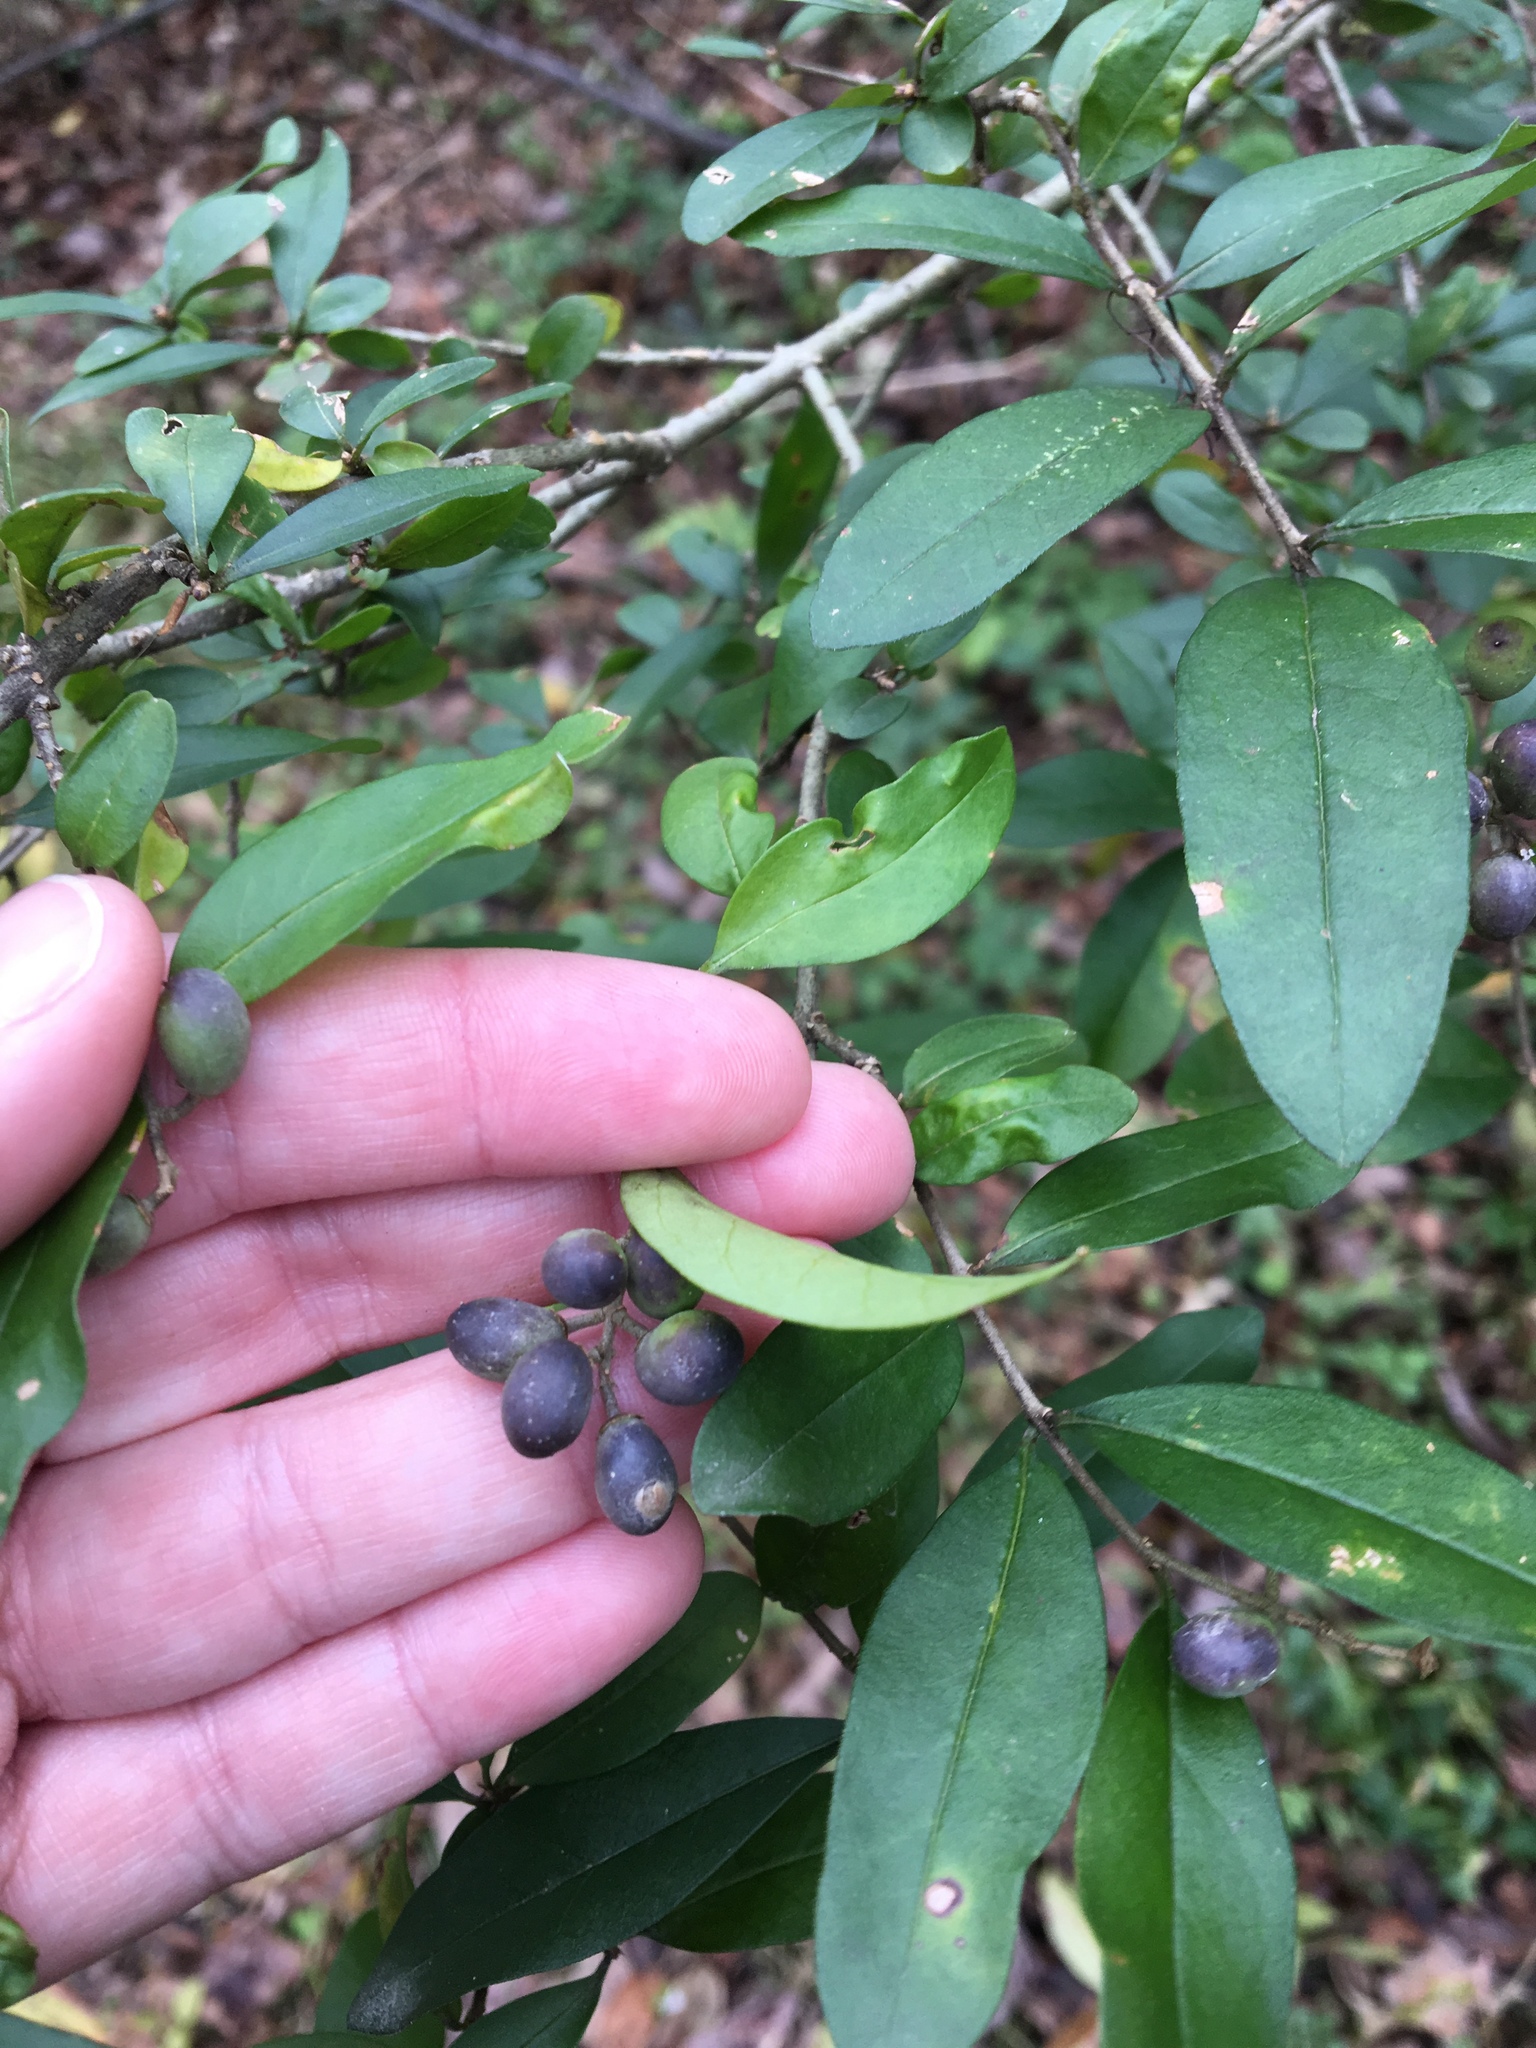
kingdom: Plantae
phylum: Tracheophyta
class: Magnoliopsida
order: Lamiales
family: Oleaceae
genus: Ligustrum
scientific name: Ligustrum obtusifolium
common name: Border privet
